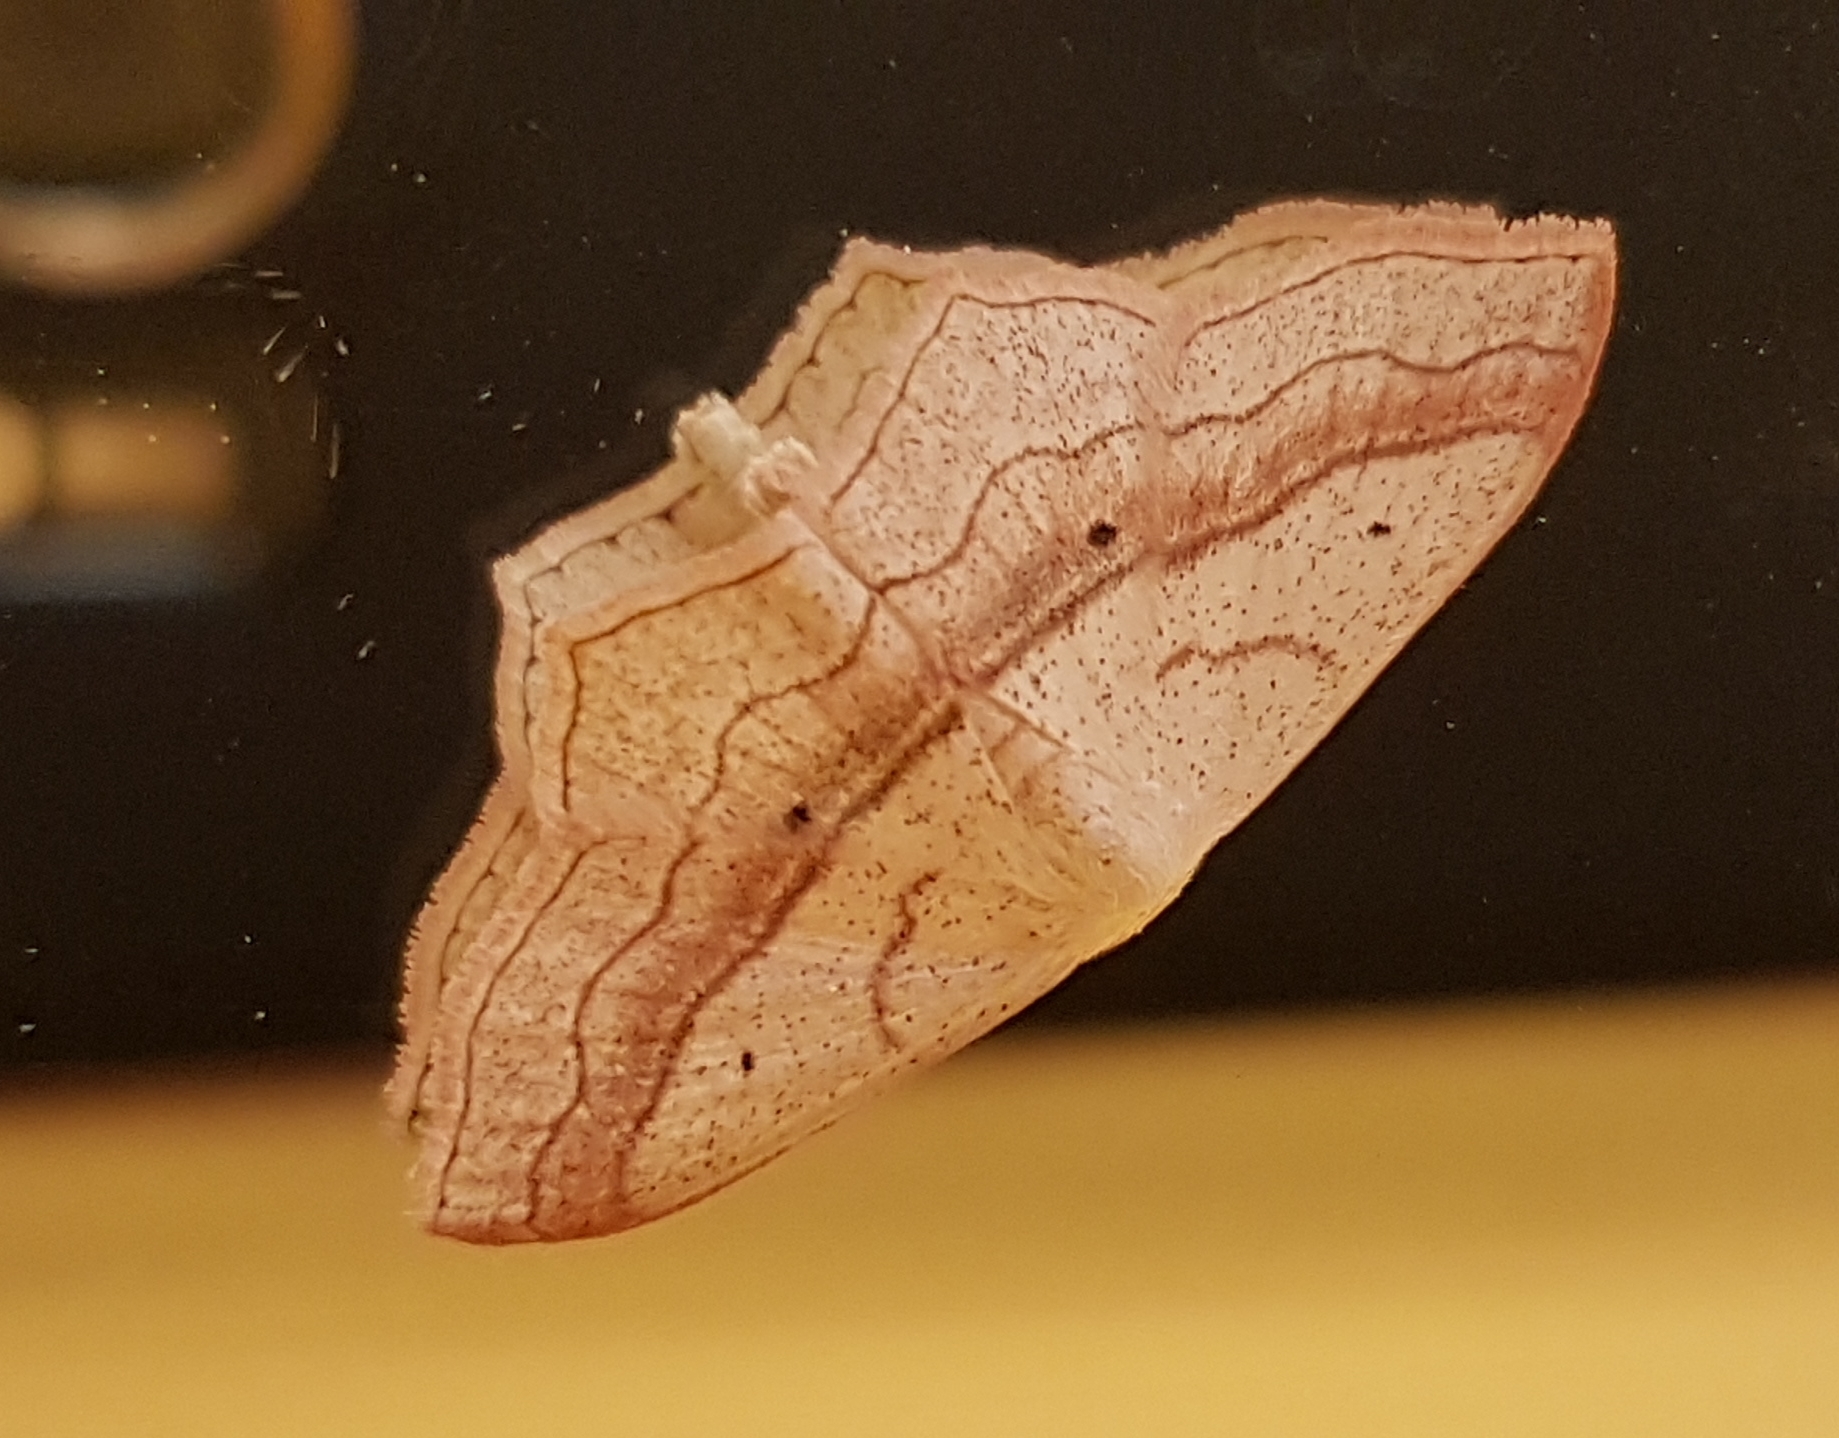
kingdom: Animalia
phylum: Arthropoda
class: Insecta
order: Lepidoptera
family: Geometridae
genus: Scopula
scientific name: Scopula imitaria
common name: Small blood-vein
